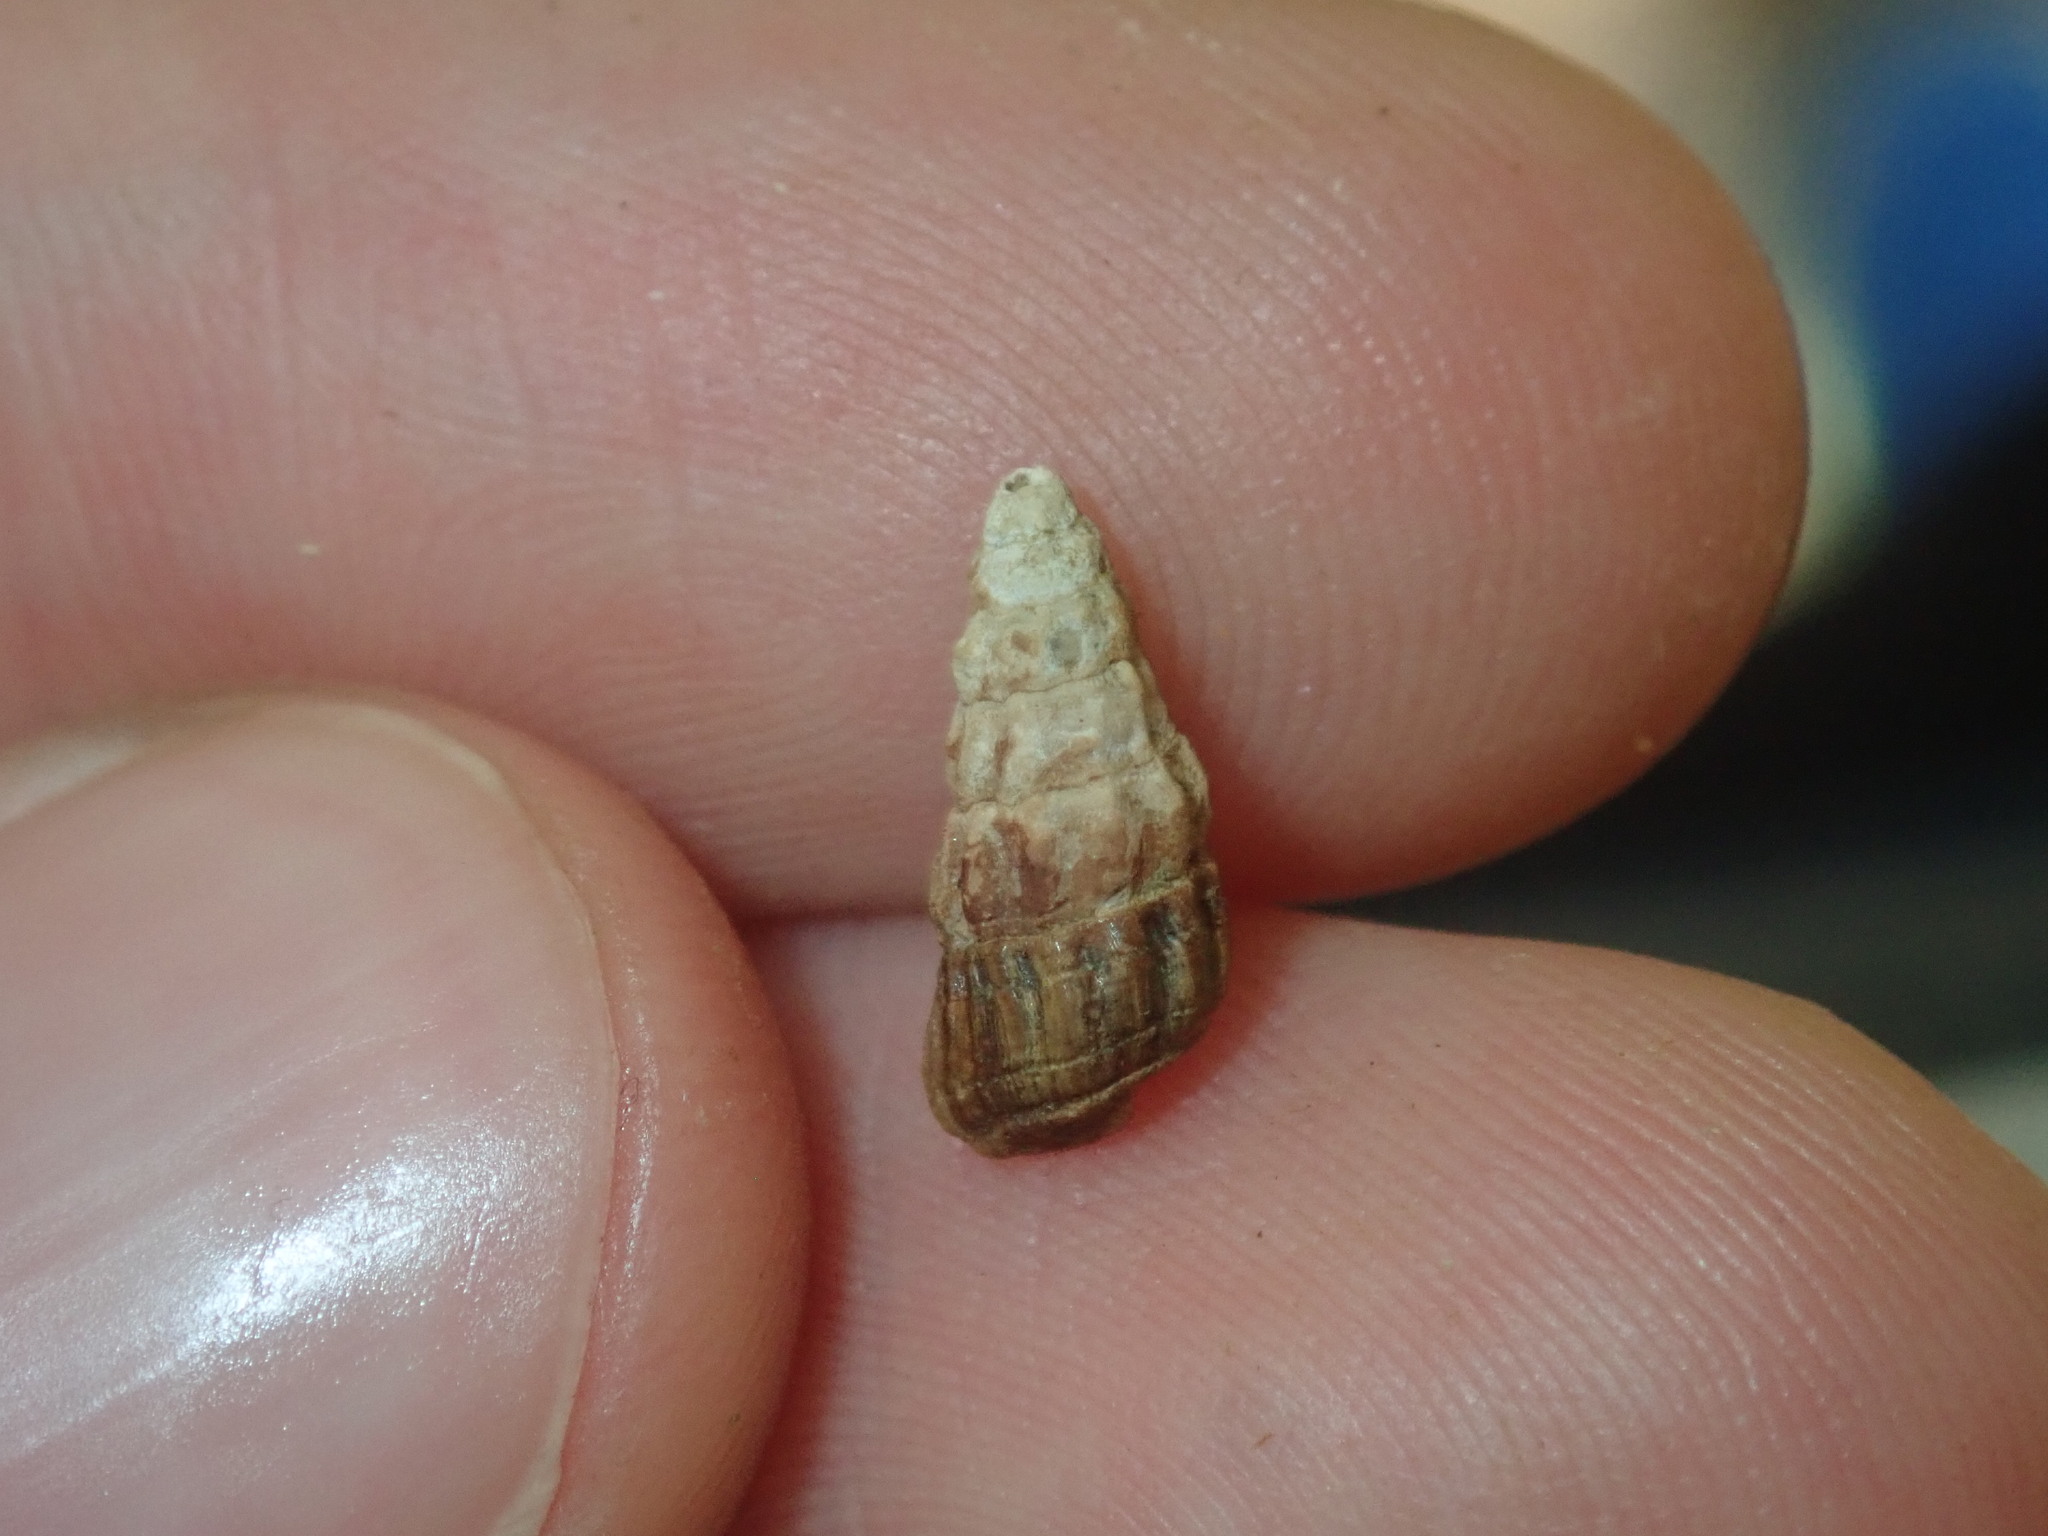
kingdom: Animalia
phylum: Mollusca
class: Gastropoda
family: Batillariidae
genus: Zeacumantus
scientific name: Zeacumantus subcarinatus
